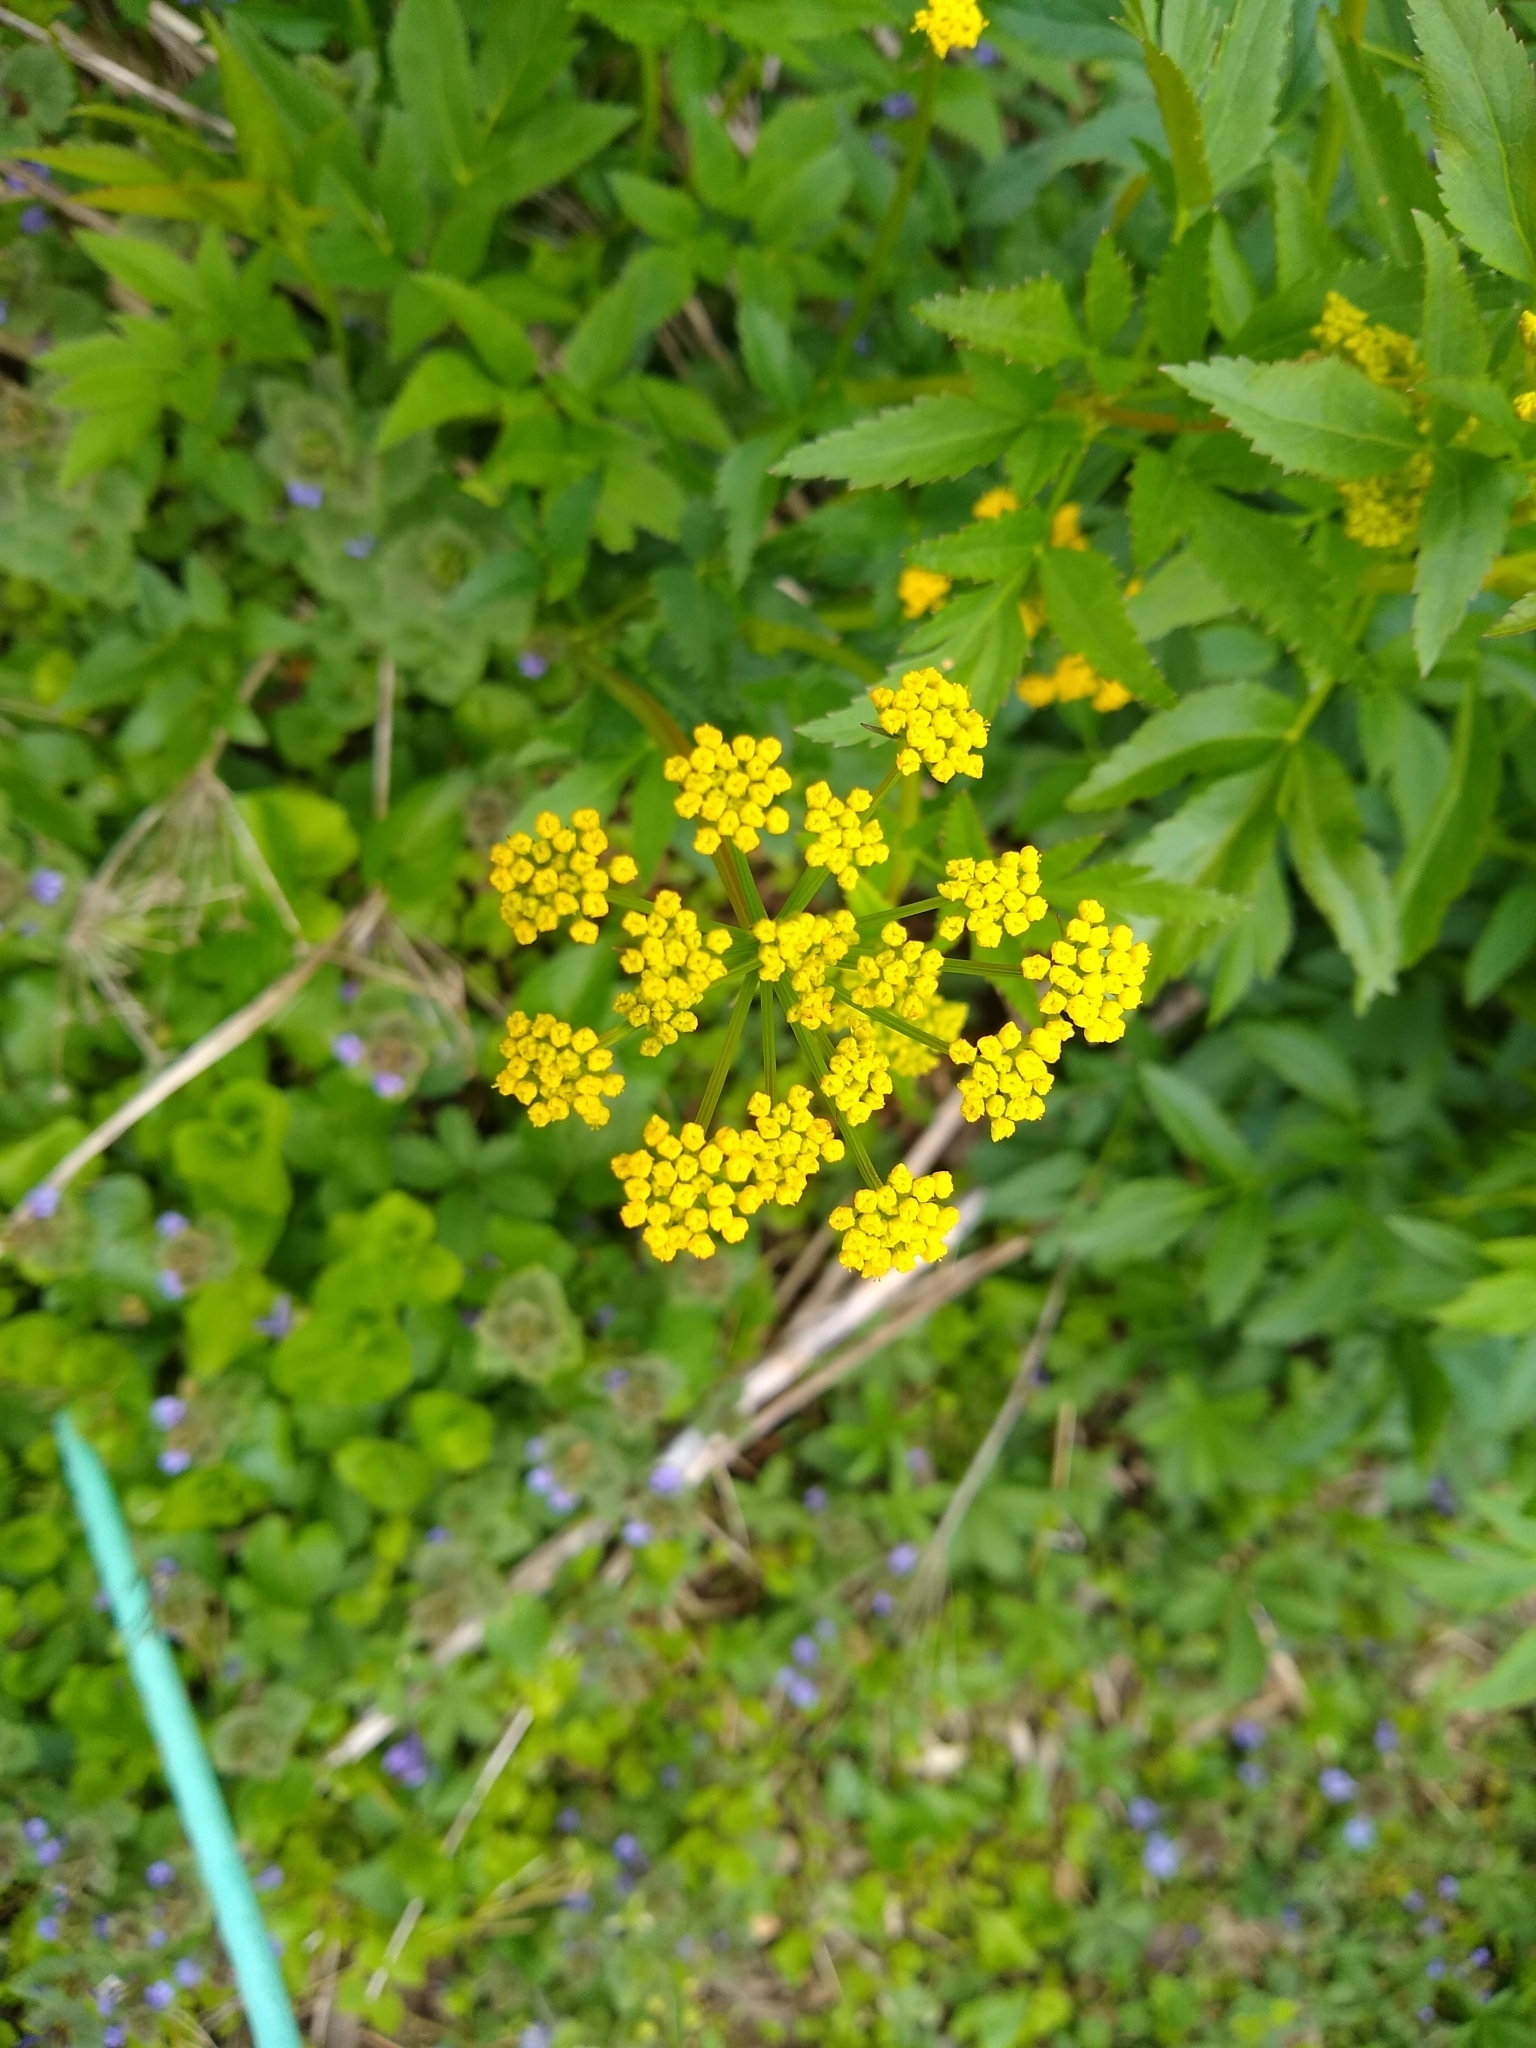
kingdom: Plantae
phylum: Tracheophyta
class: Magnoliopsida
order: Apiales
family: Apiaceae
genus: Zizia
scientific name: Zizia aurea
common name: Golden alexanders
